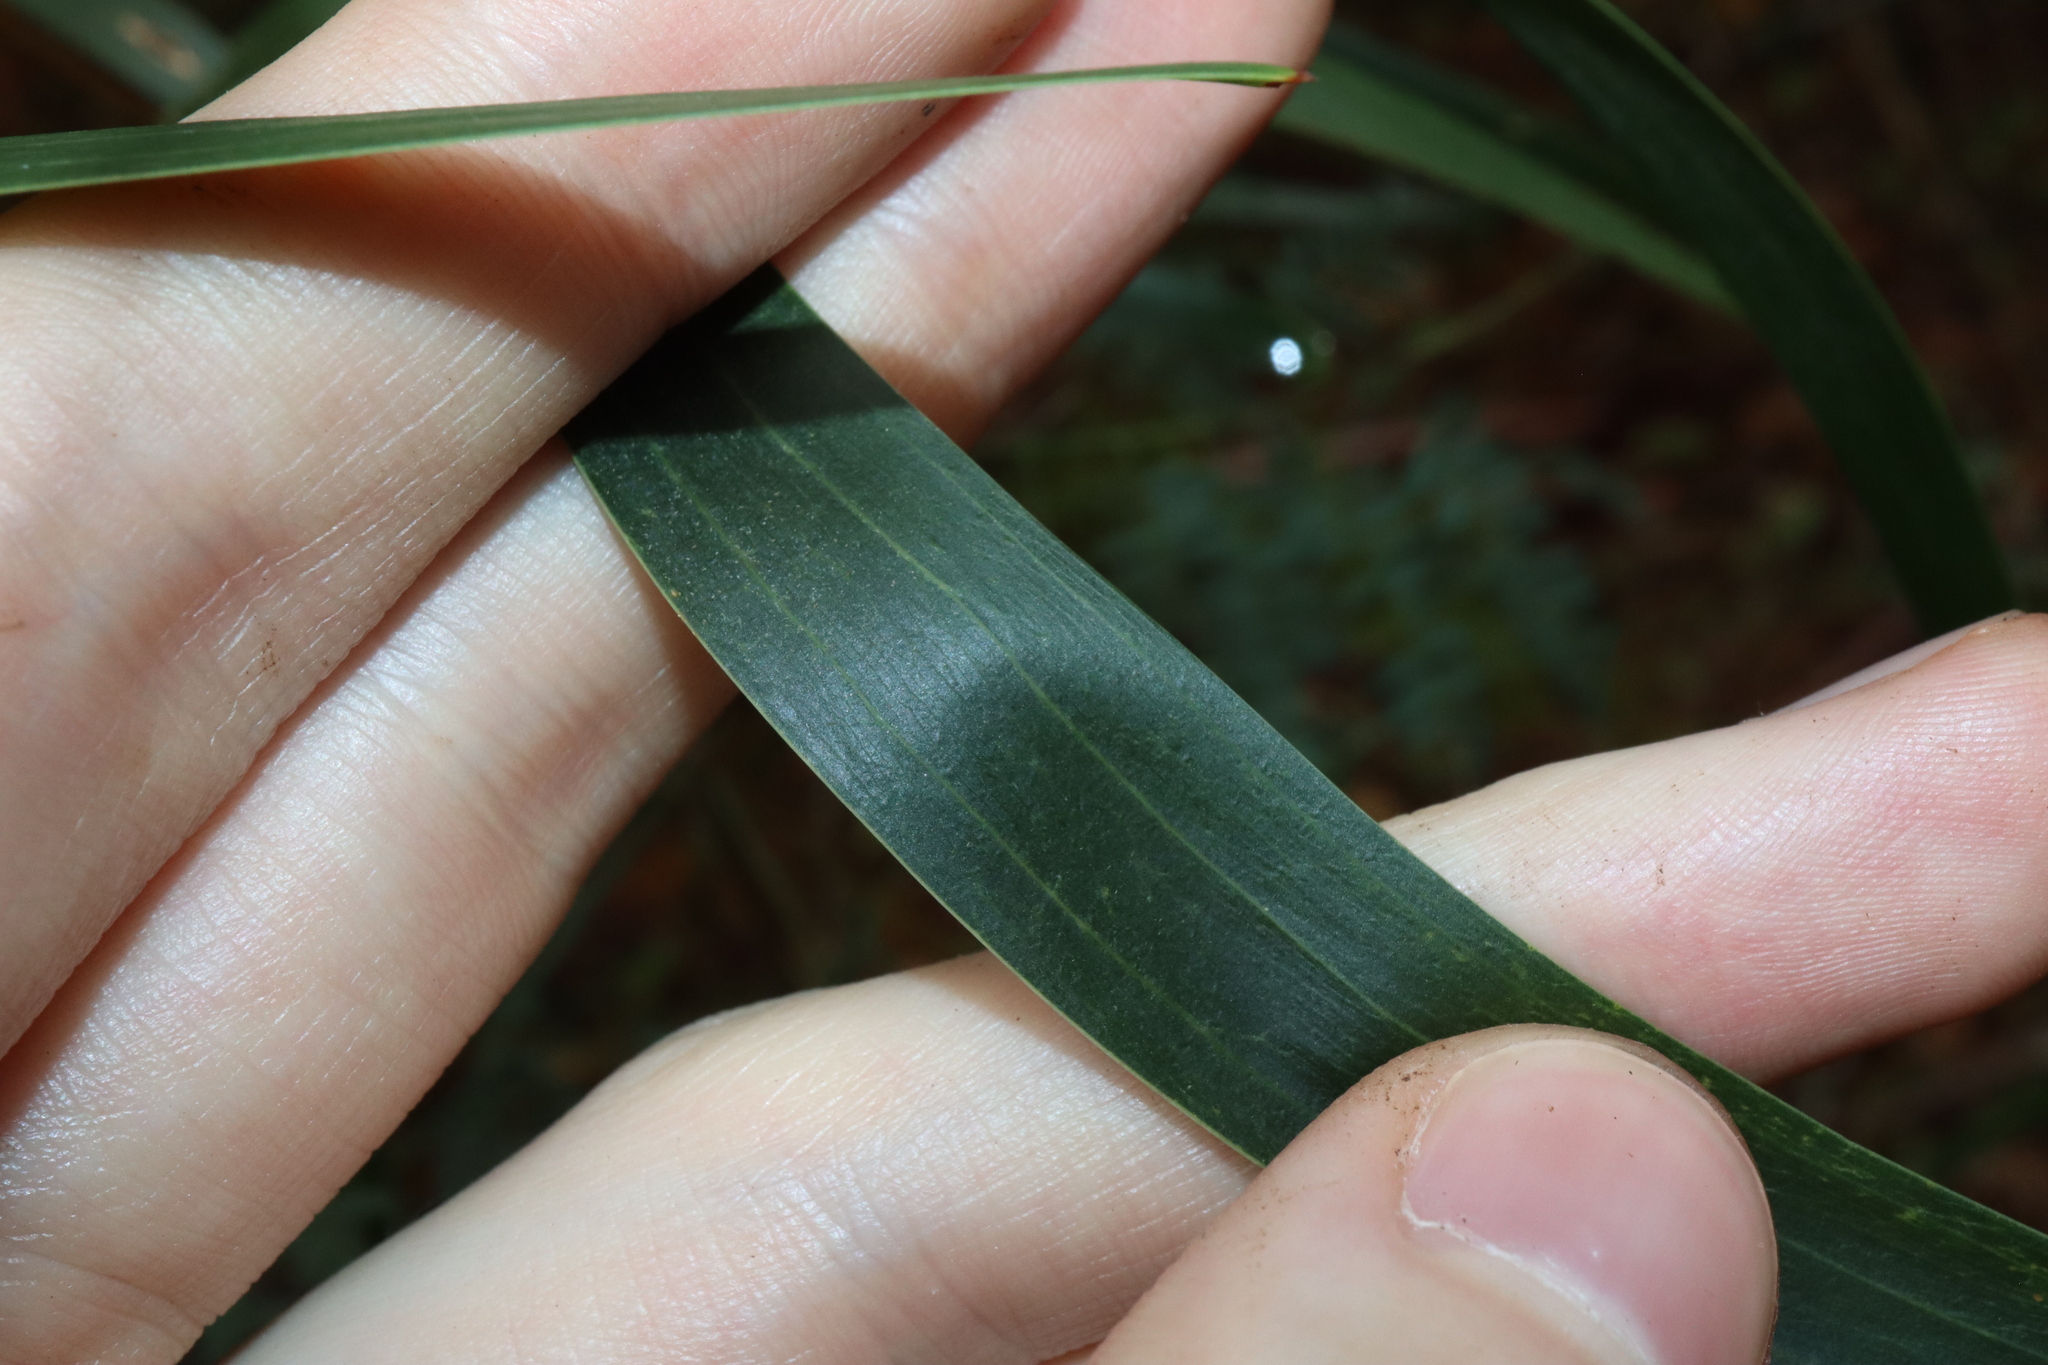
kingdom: Plantae
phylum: Tracheophyta
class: Magnoliopsida
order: Fabales
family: Fabaceae
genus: Acacia
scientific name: Acacia implexa
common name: Black wattle
